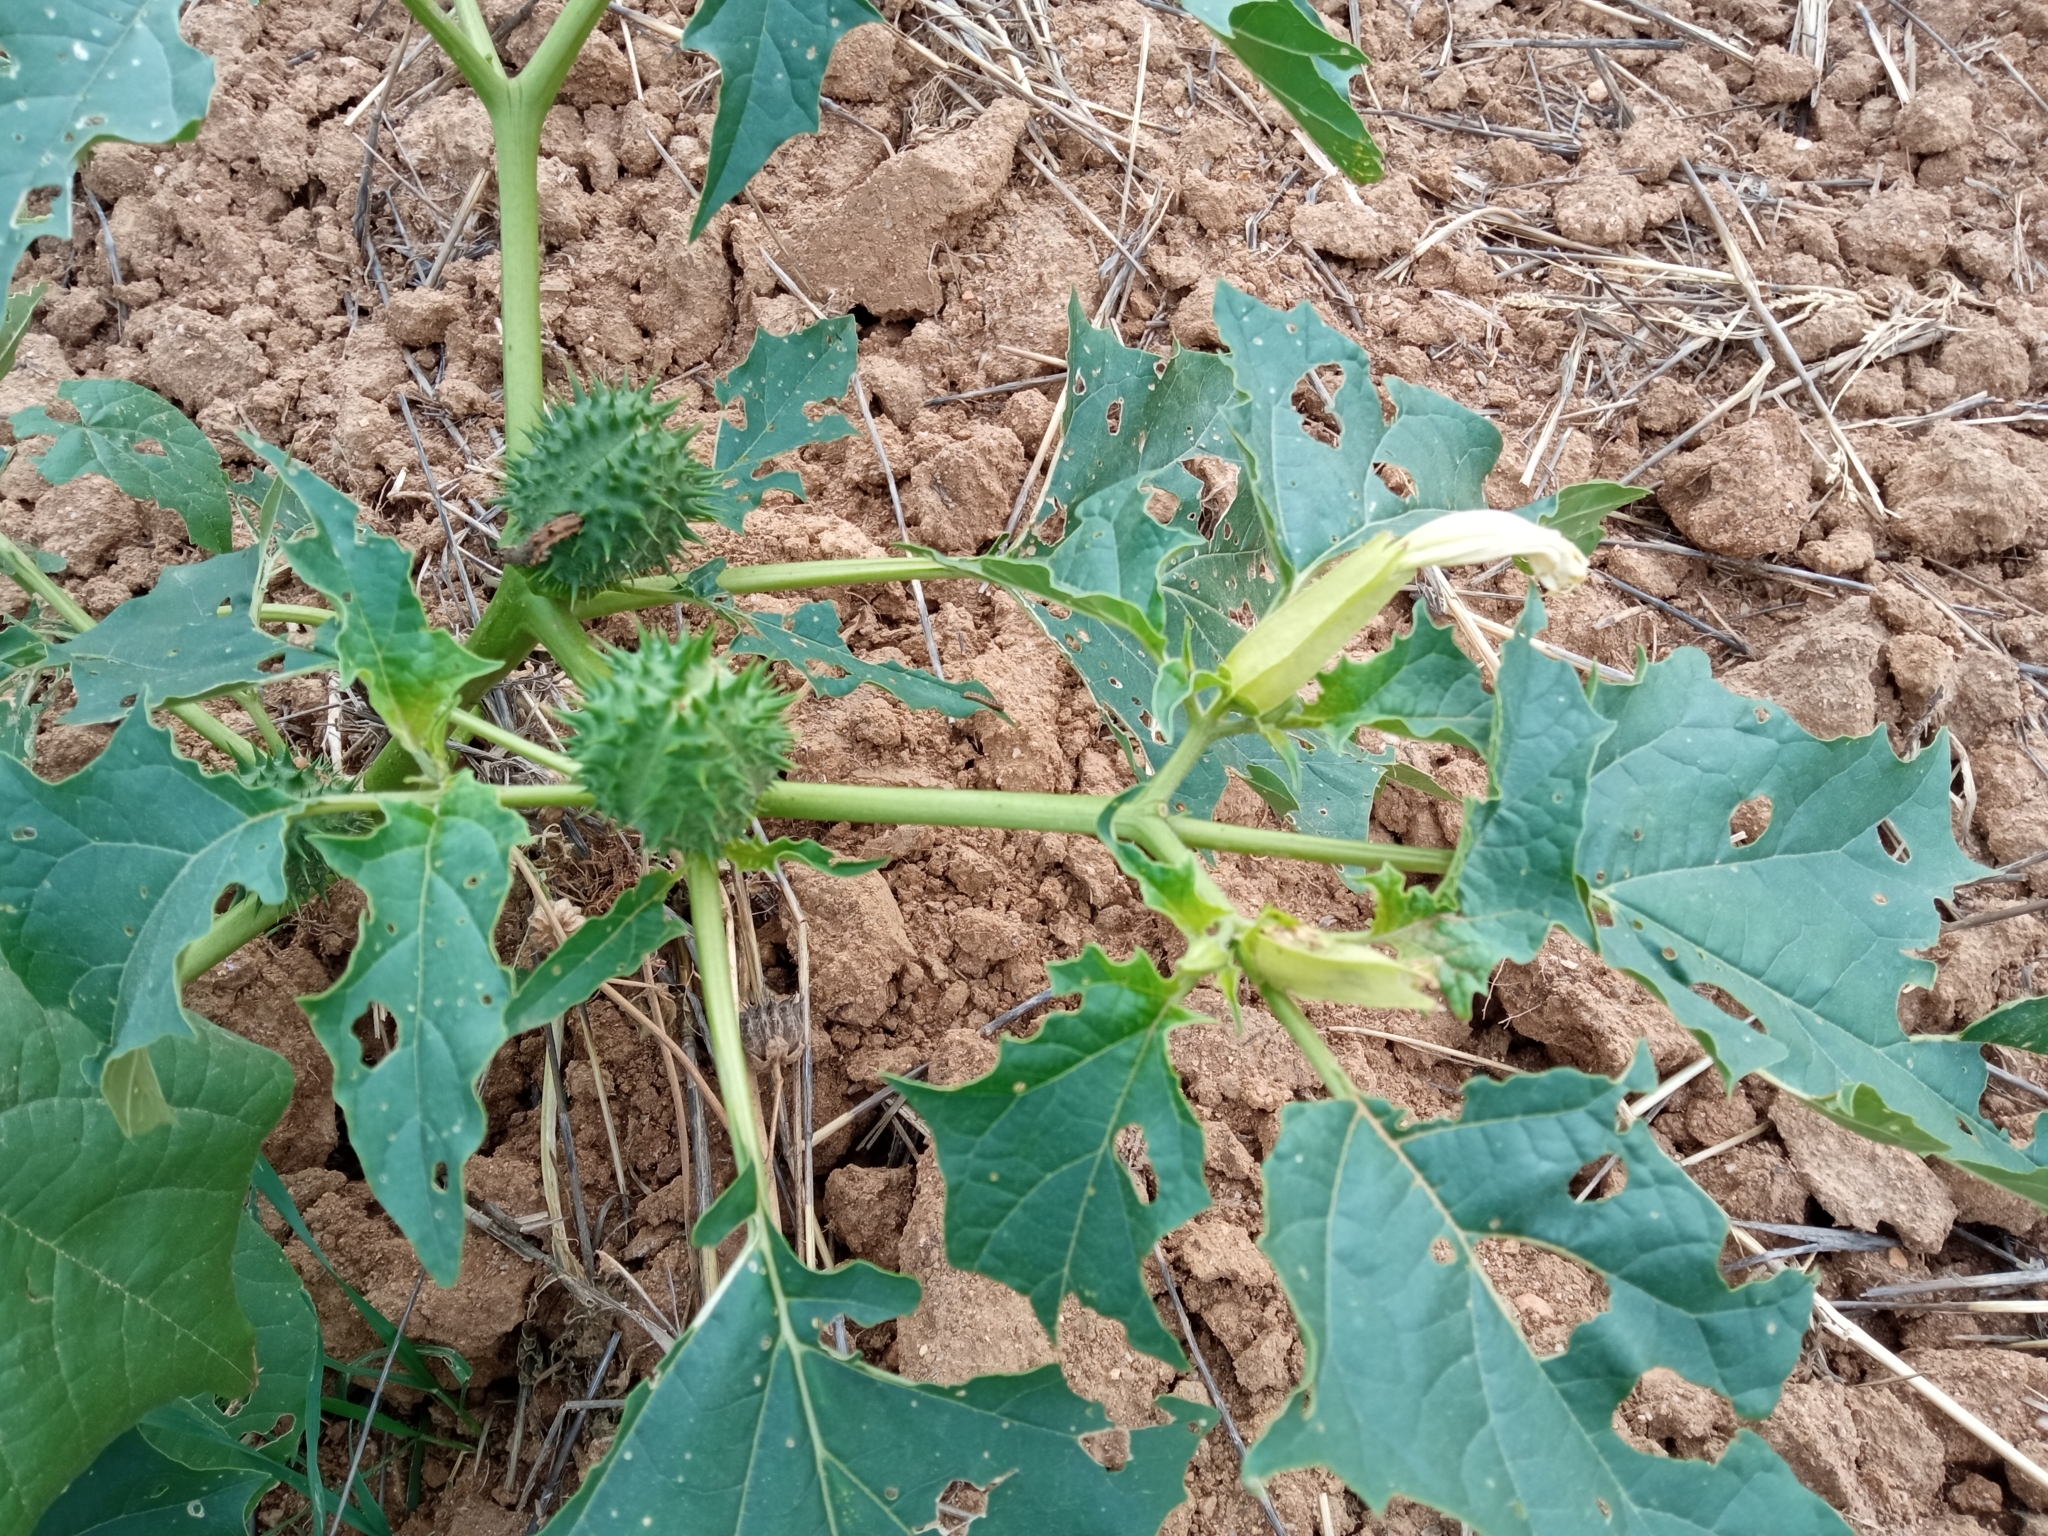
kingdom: Plantae
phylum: Tracheophyta
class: Magnoliopsida
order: Solanales
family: Solanaceae
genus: Datura
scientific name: Datura stramonium
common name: Thorn-apple
